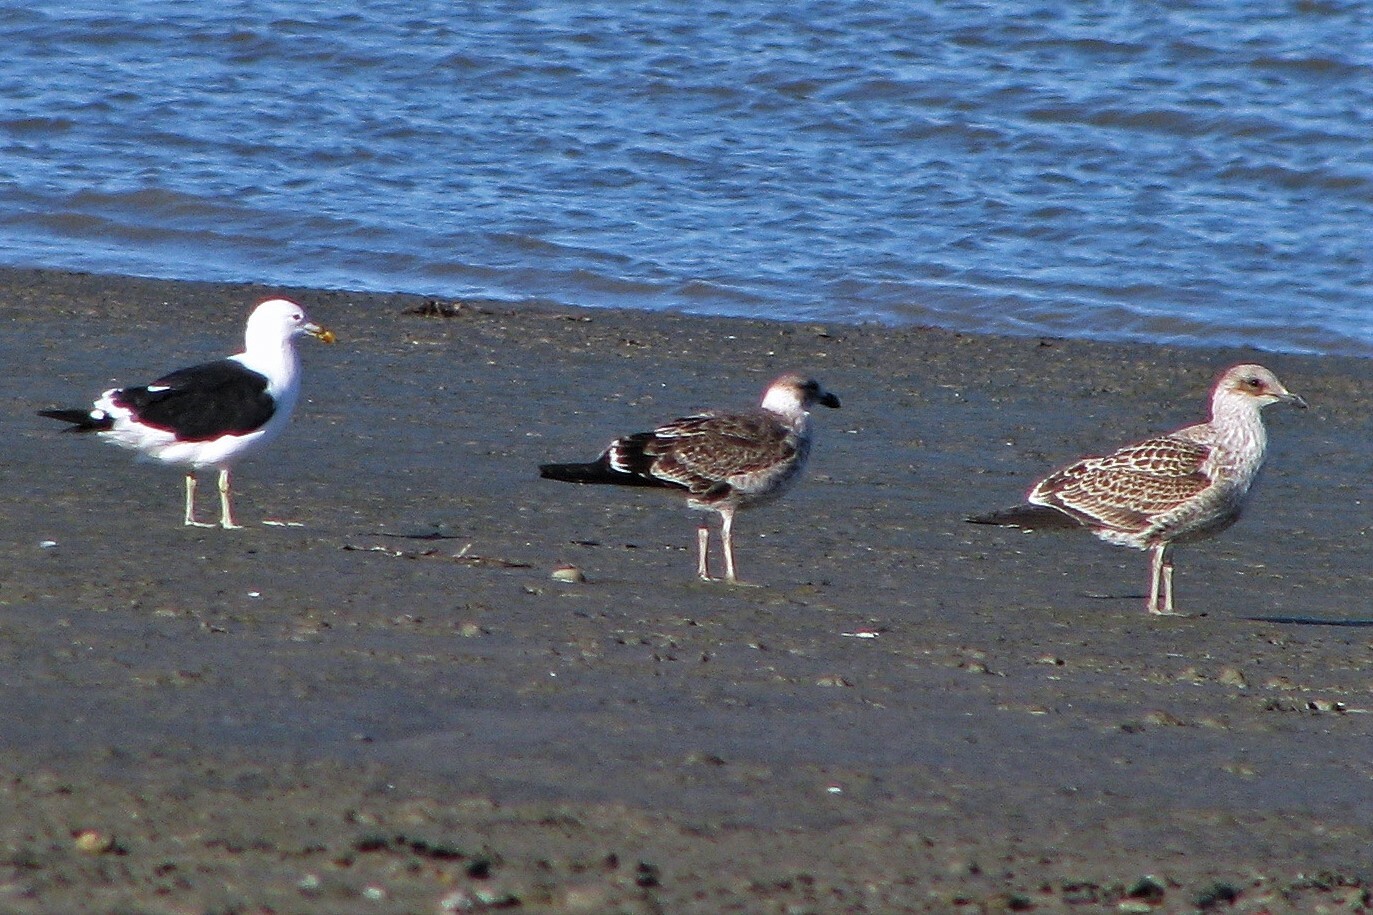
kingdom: Animalia
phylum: Chordata
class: Aves
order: Charadriiformes
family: Laridae
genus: Larus
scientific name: Larus dominicanus
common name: Kelp gull
